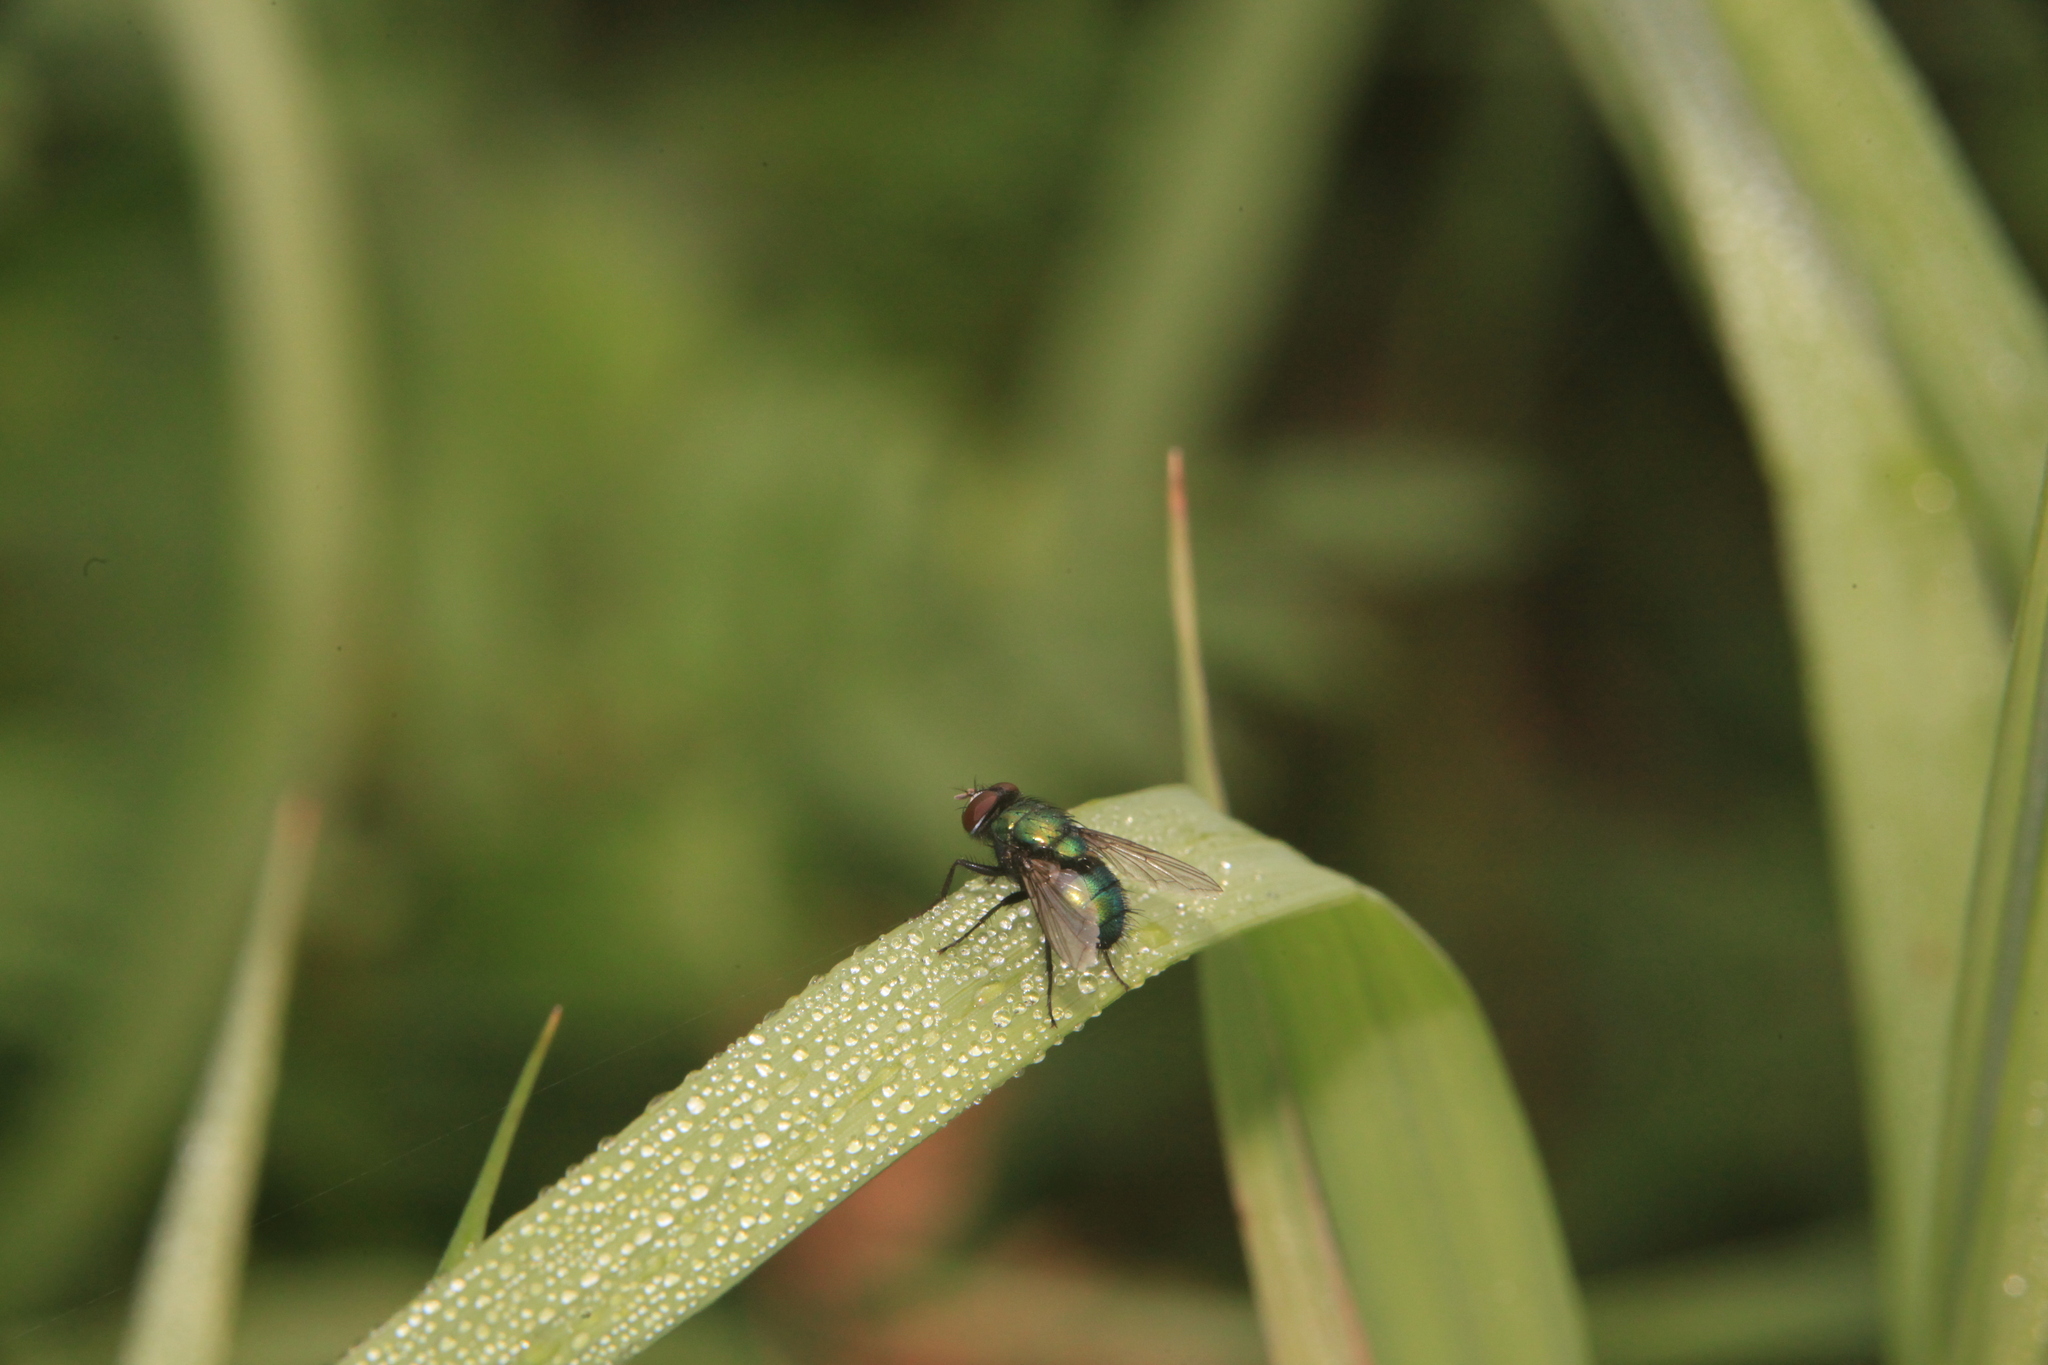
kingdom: Animalia
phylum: Arthropoda
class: Insecta
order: Diptera
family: Calliphoridae
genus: Lucilia
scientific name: Lucilia sericata
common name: Blow fly
